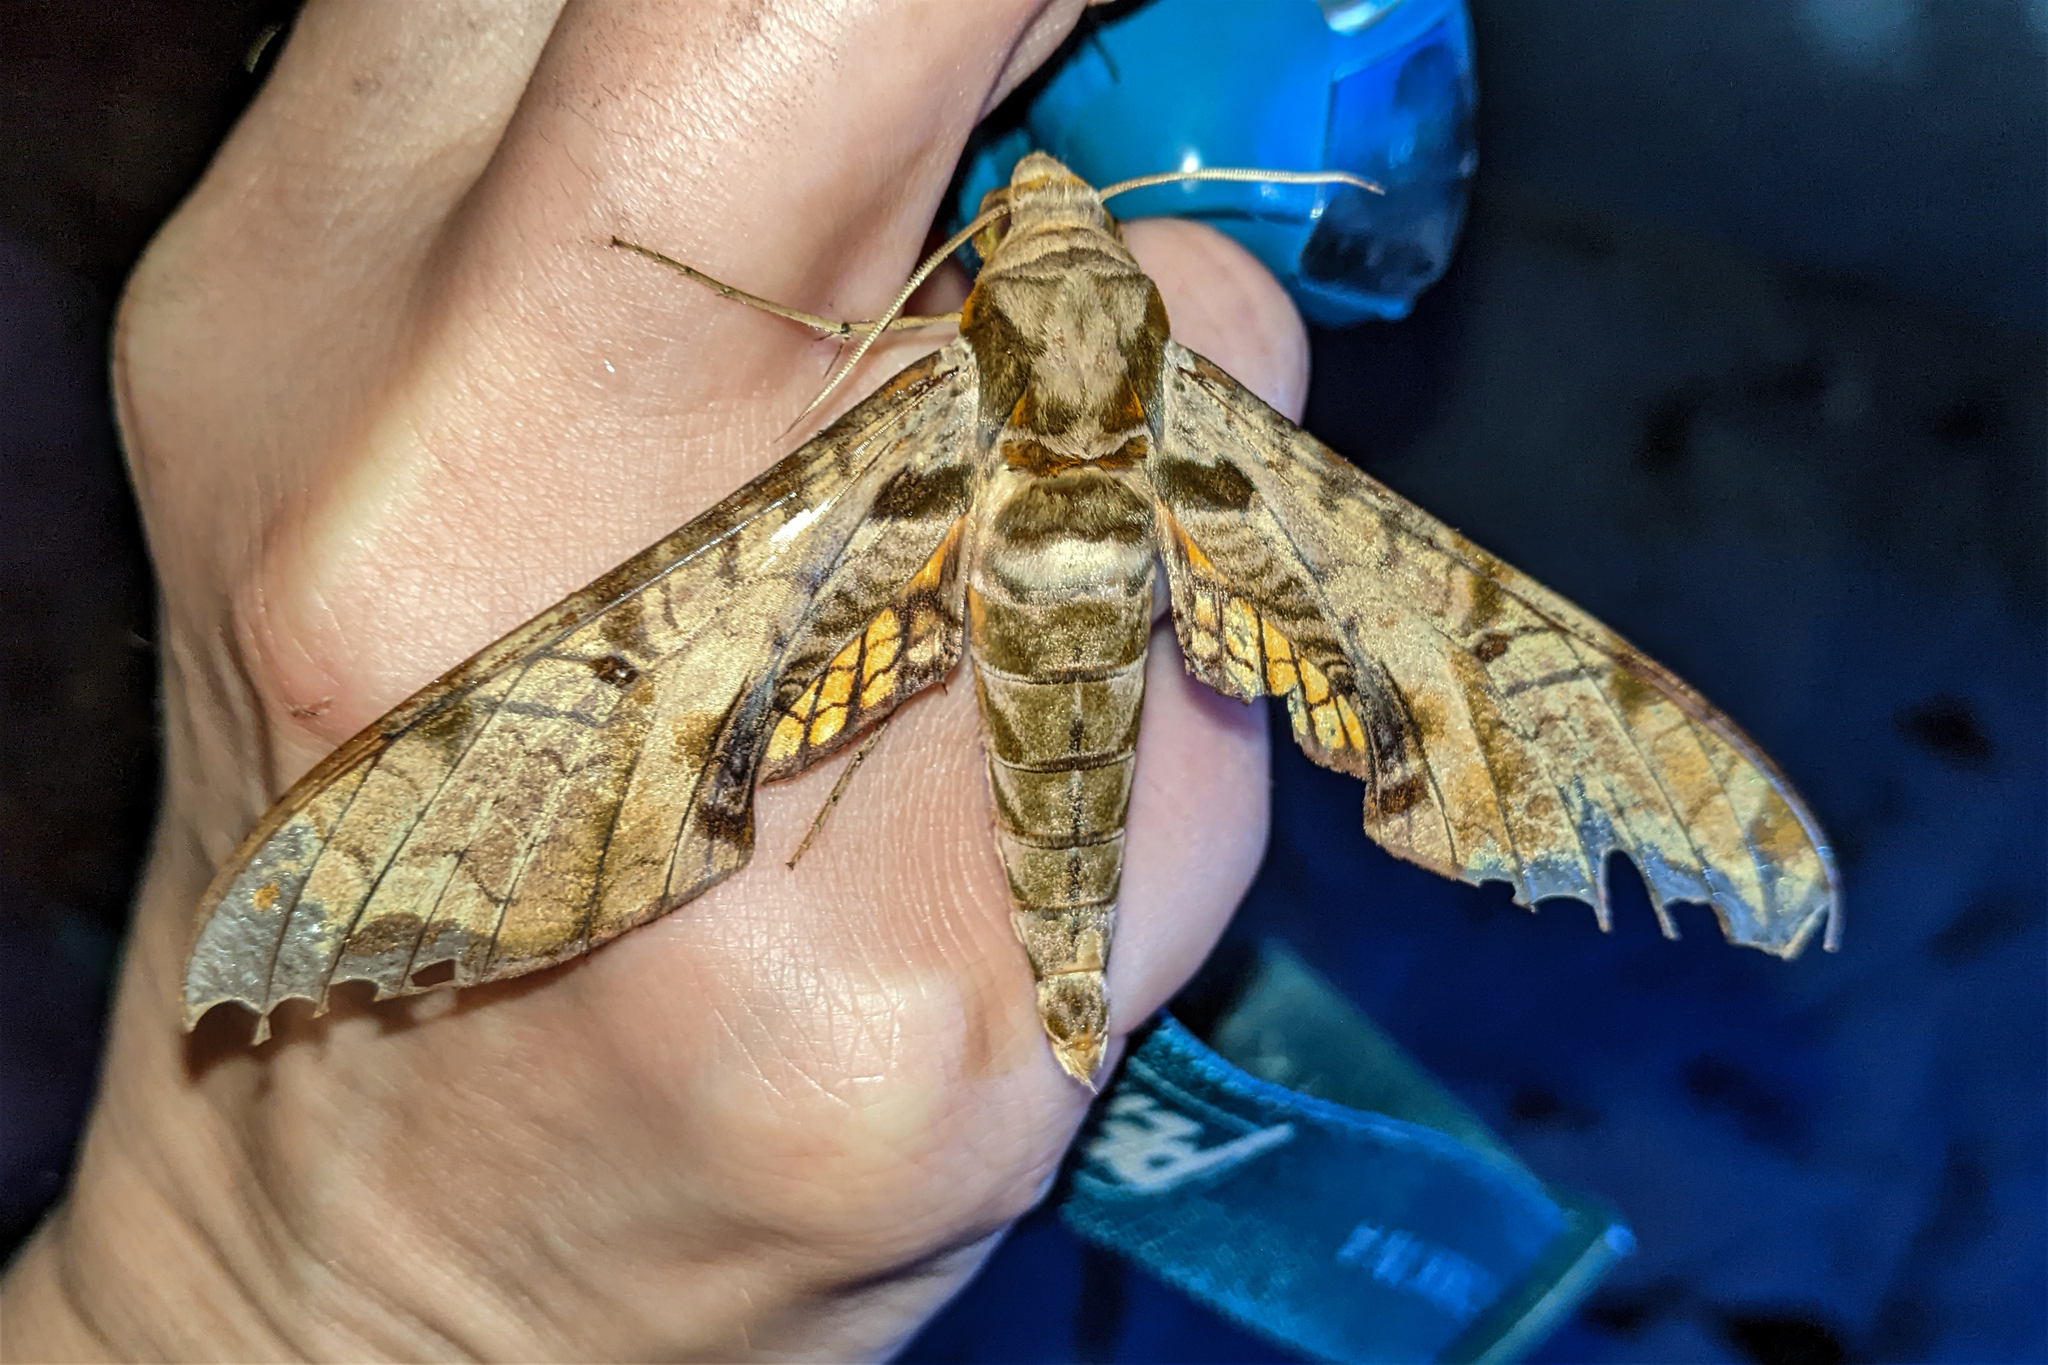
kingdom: Animalia
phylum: Arthropoda
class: Insecta
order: Lepidoptera
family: Sphingidae
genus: Protambulyx
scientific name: Protambulyx eurycles
